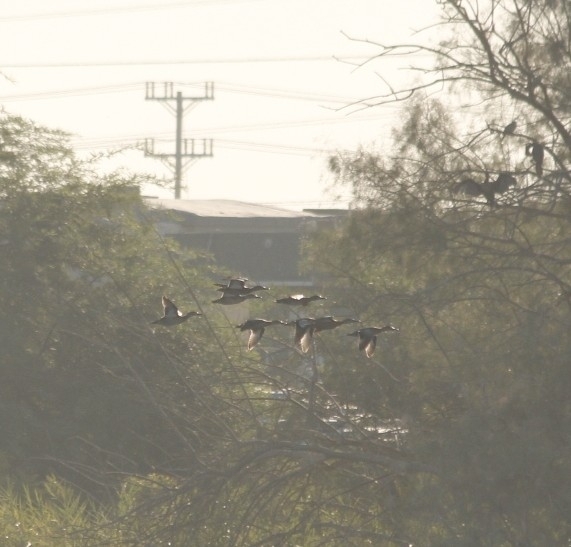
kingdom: Animalia
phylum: Chordata
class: Aves
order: Anseriformes
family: Anatidae
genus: Anas
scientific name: Anas platyrhynchos
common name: Mallard
